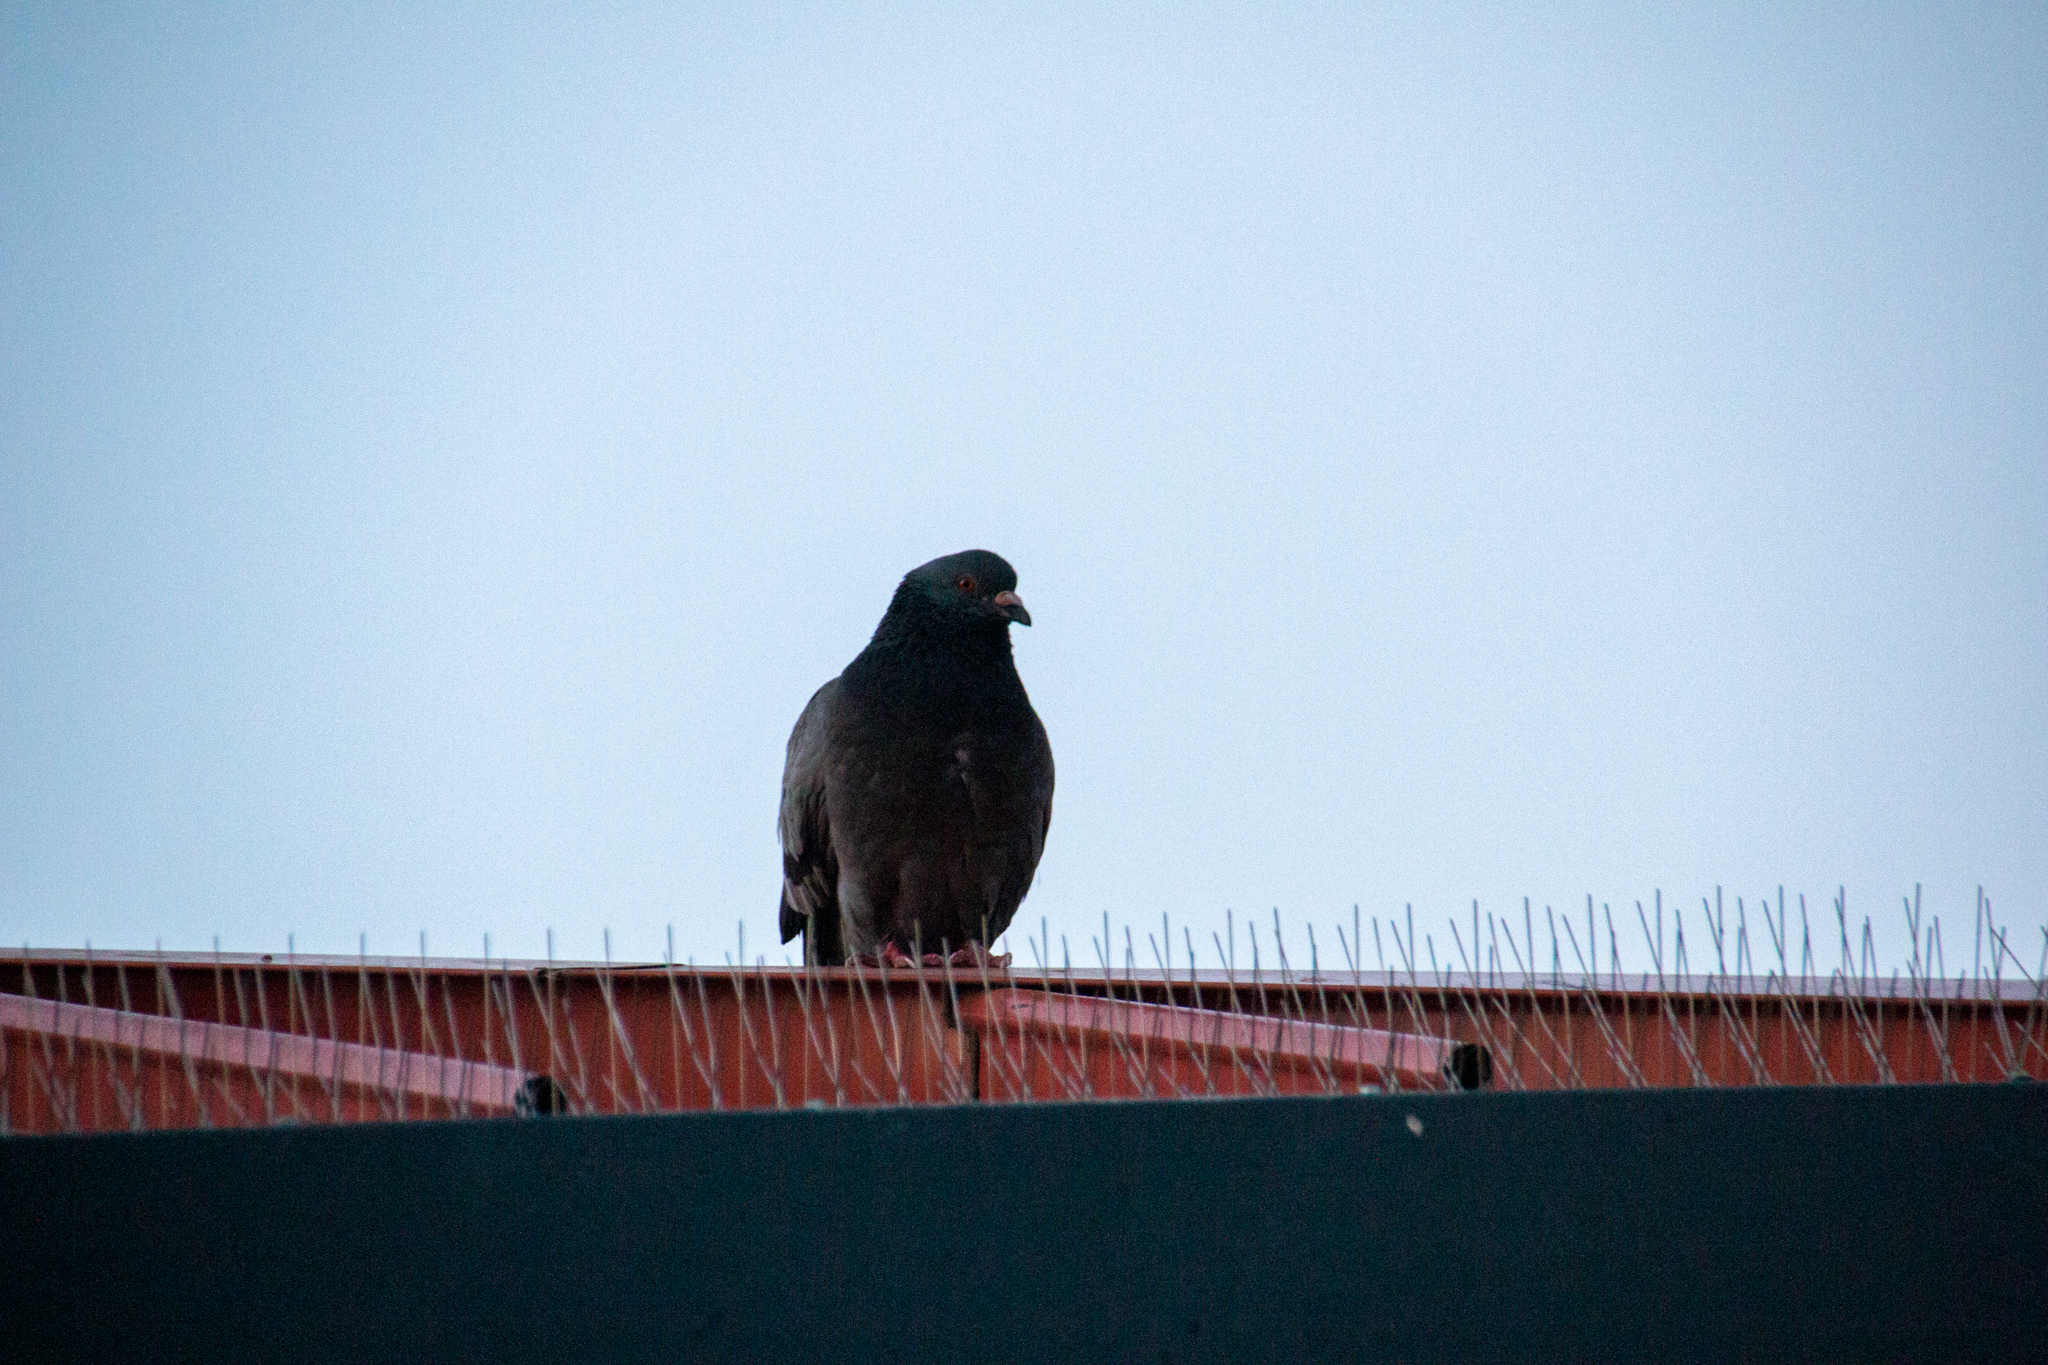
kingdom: Animalia
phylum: Chordata
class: Aves
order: Columbiformes
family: Columbidae
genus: Columba
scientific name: Columba livia
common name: Rock pigeon
